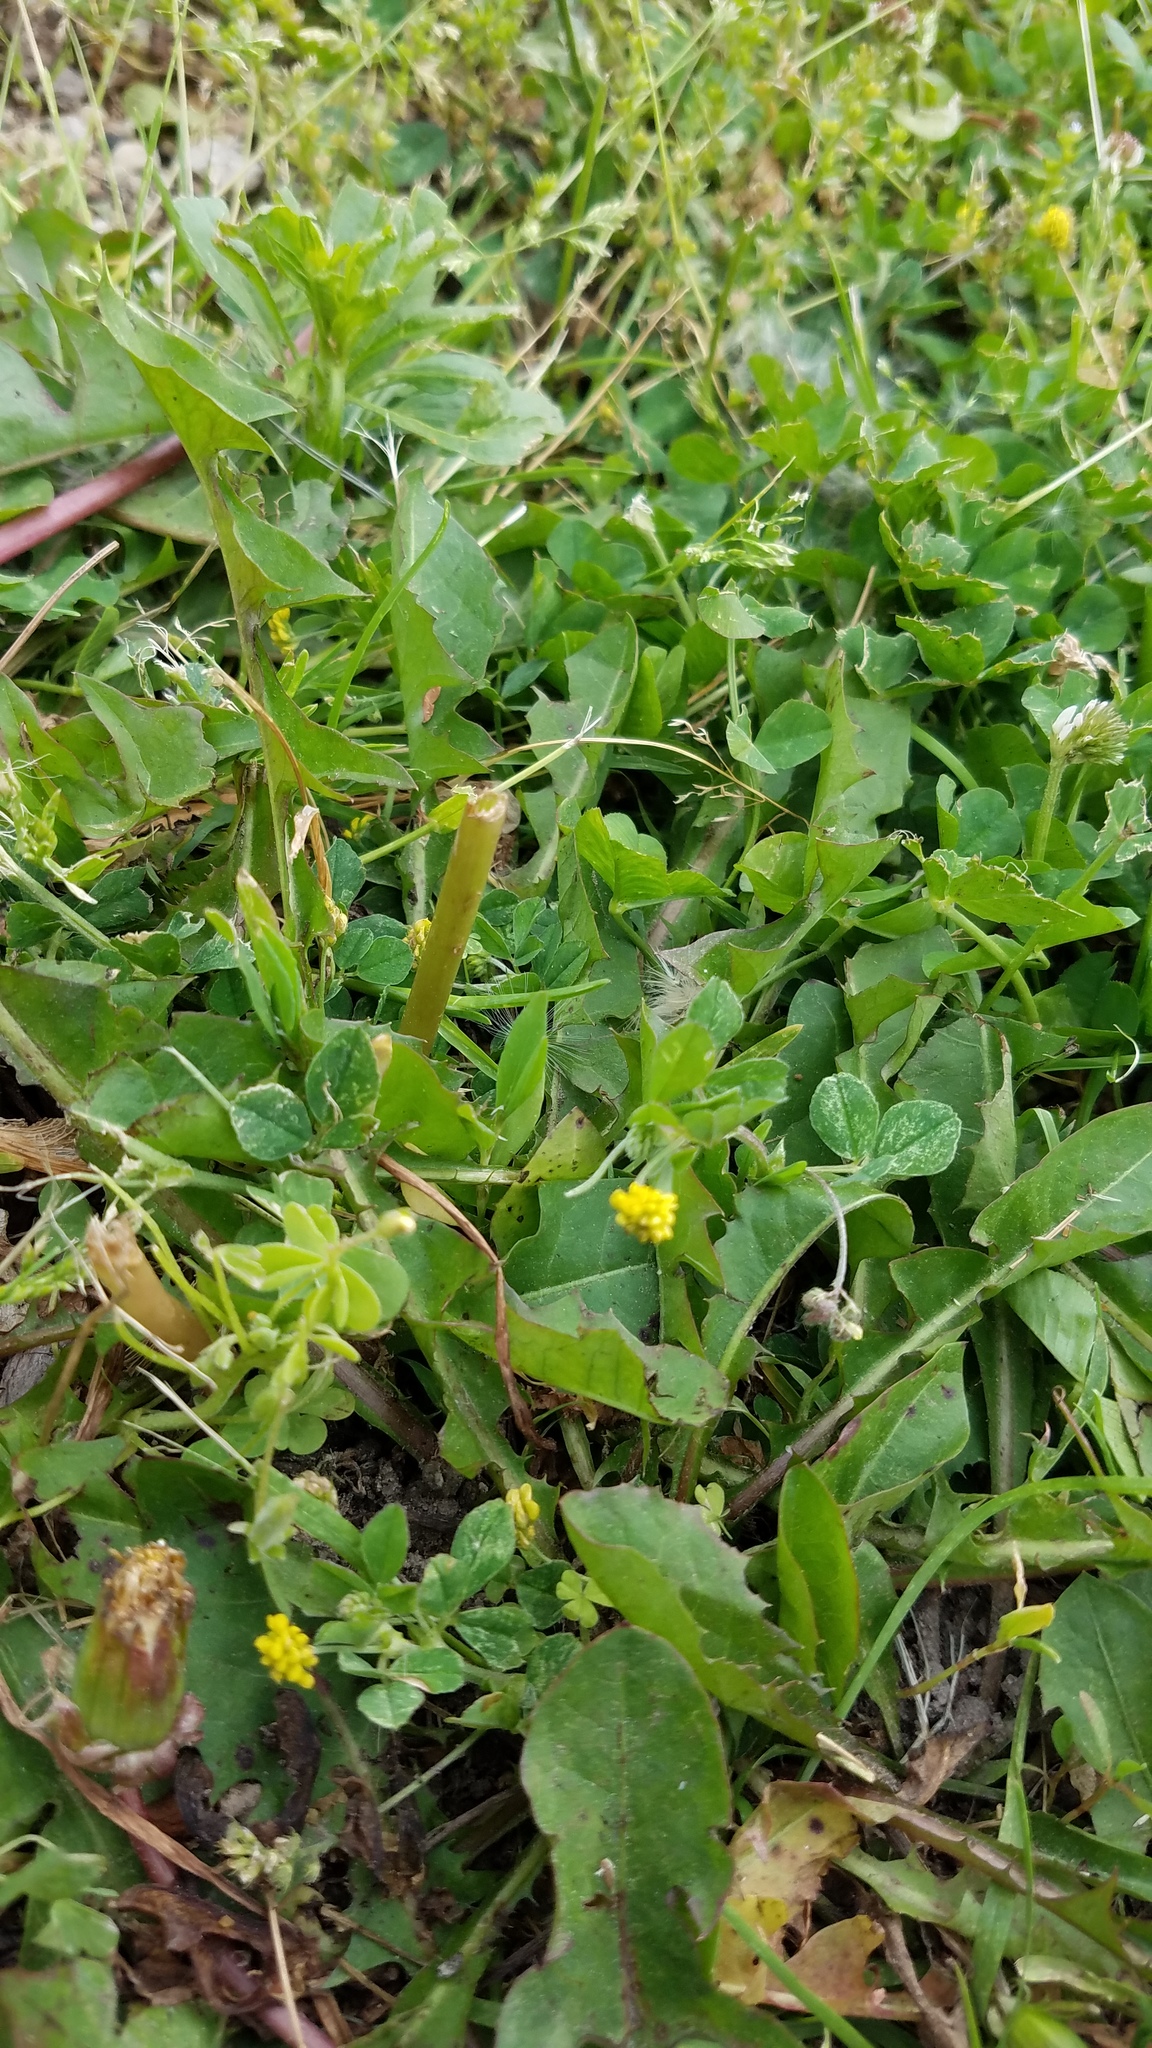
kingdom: Plantae
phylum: Tracheophyta
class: Magnoliopsida
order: Fabales
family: Fabaceae
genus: Medicago
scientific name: Medicago lupulina
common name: Black medick
